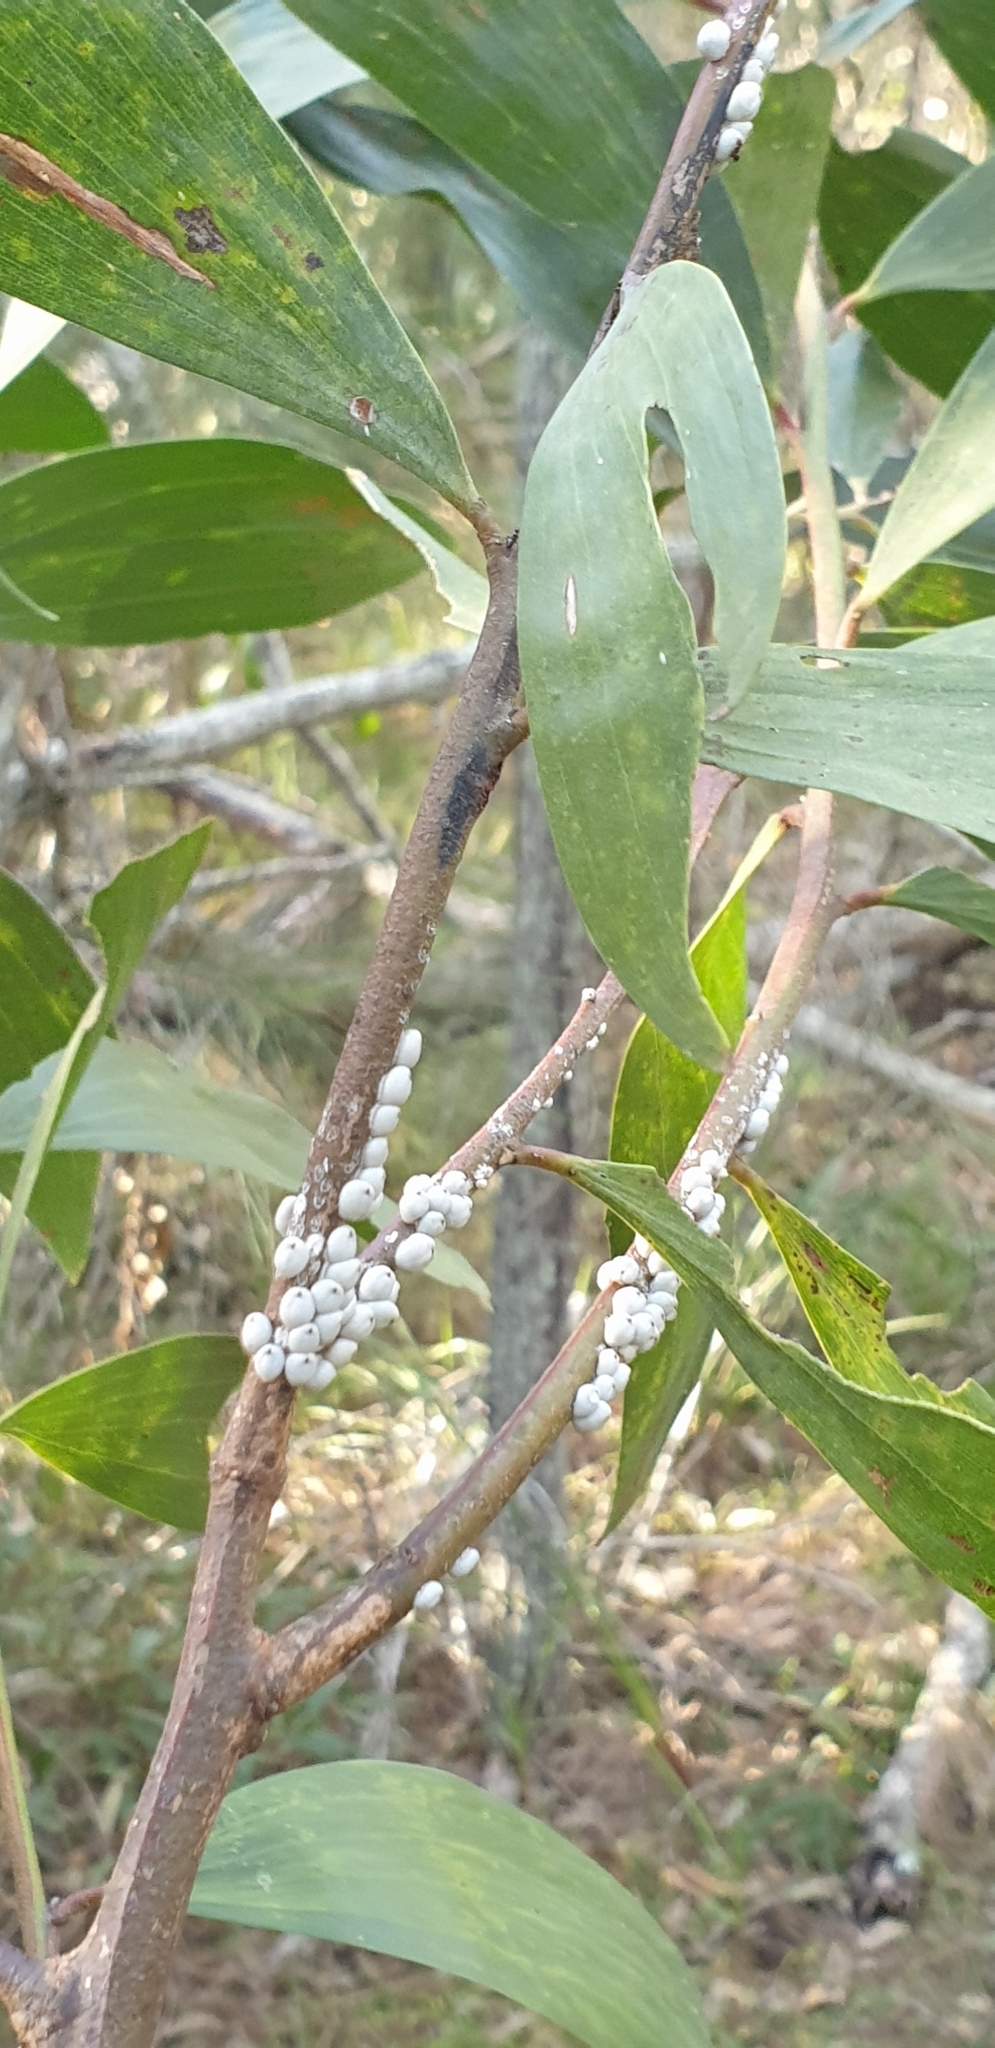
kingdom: Animalia
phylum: Arthropoda
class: Insecta
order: Hemiptera
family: Coccidae
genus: Cryptes
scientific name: Cryptes baccatus
